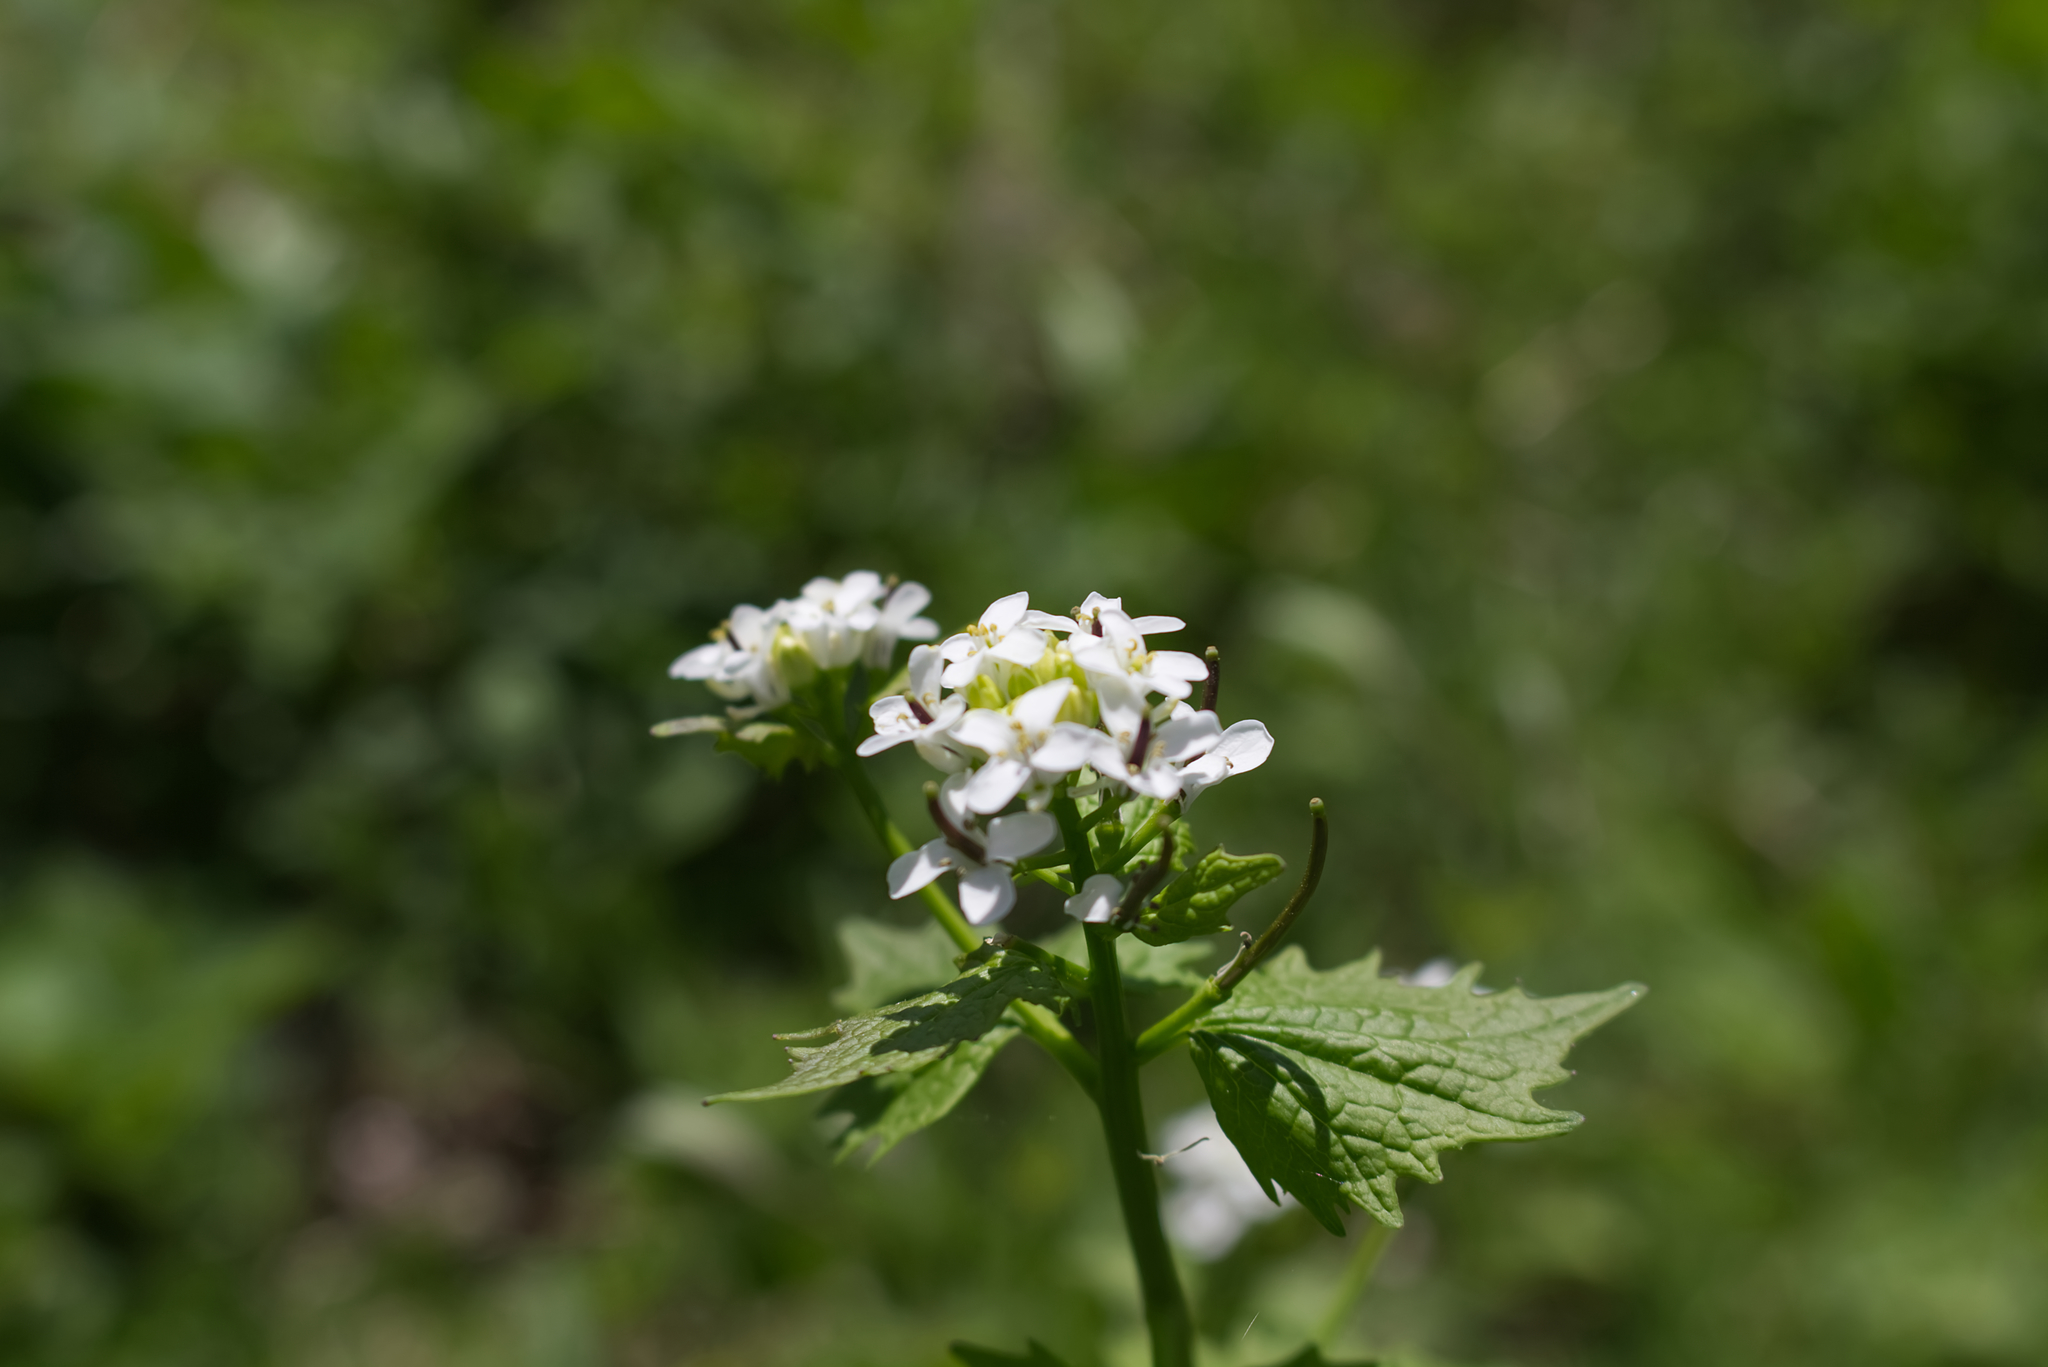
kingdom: Plantae
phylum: Tracheophyta
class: Magnoliopsida
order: Brassicales
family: Brassicaceae
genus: Alliaria
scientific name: Alliaria petiolata
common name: Garlic mustard
